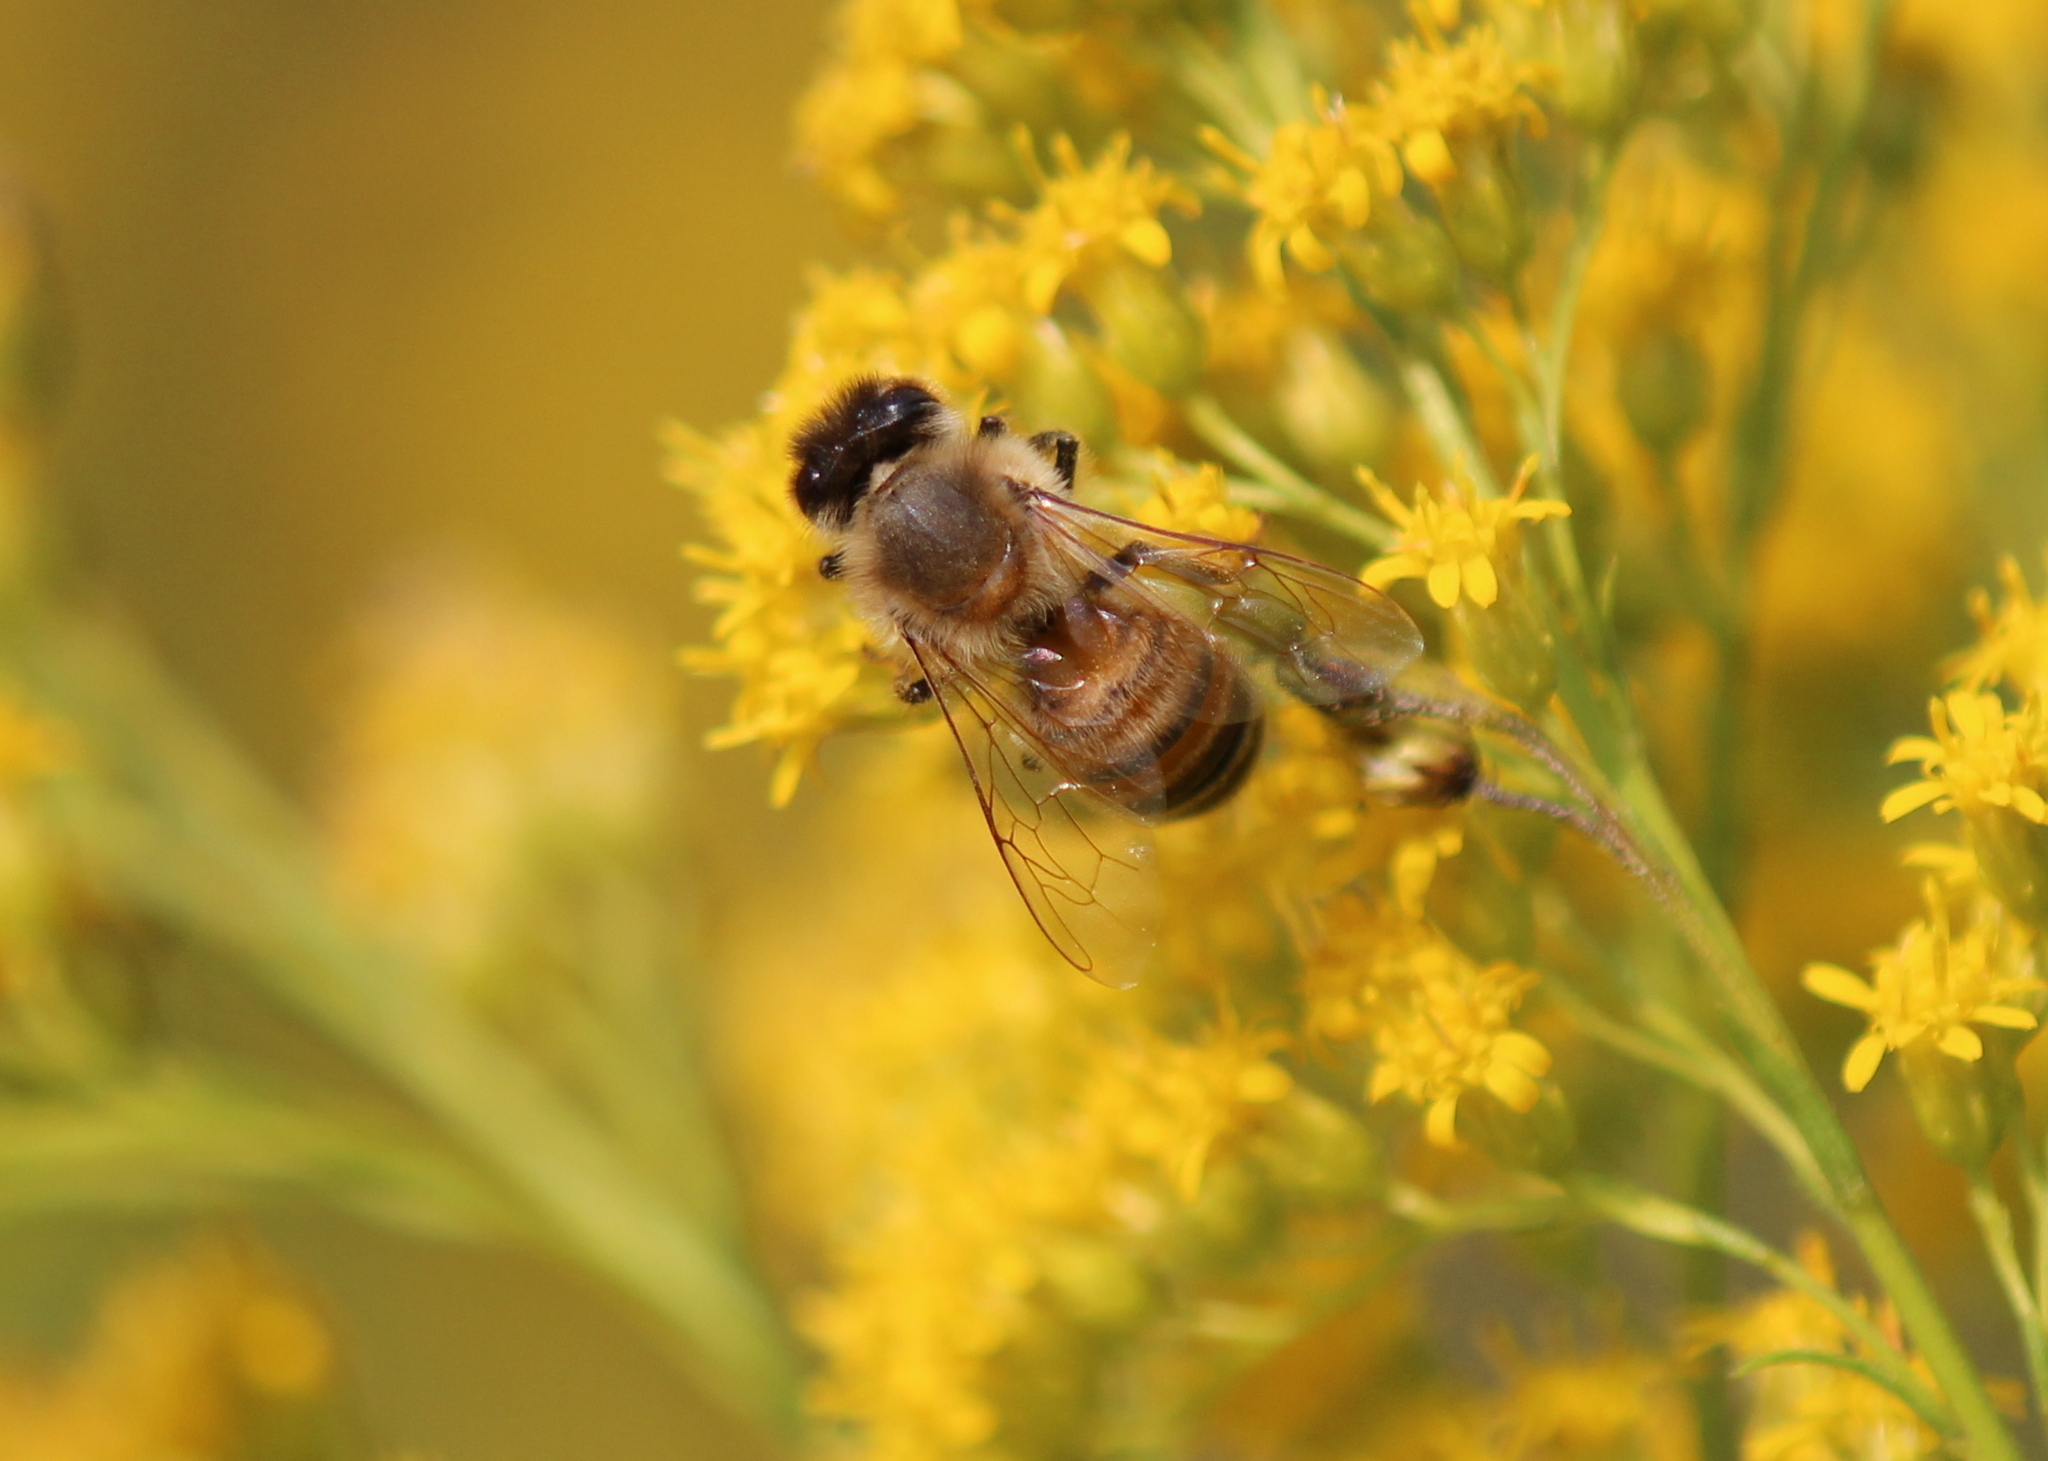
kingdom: Animalia
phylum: Arthropoda
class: Insecta
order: Hymenoptera
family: Apidae
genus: Apis
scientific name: Apis mellifera
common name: Honey bee
